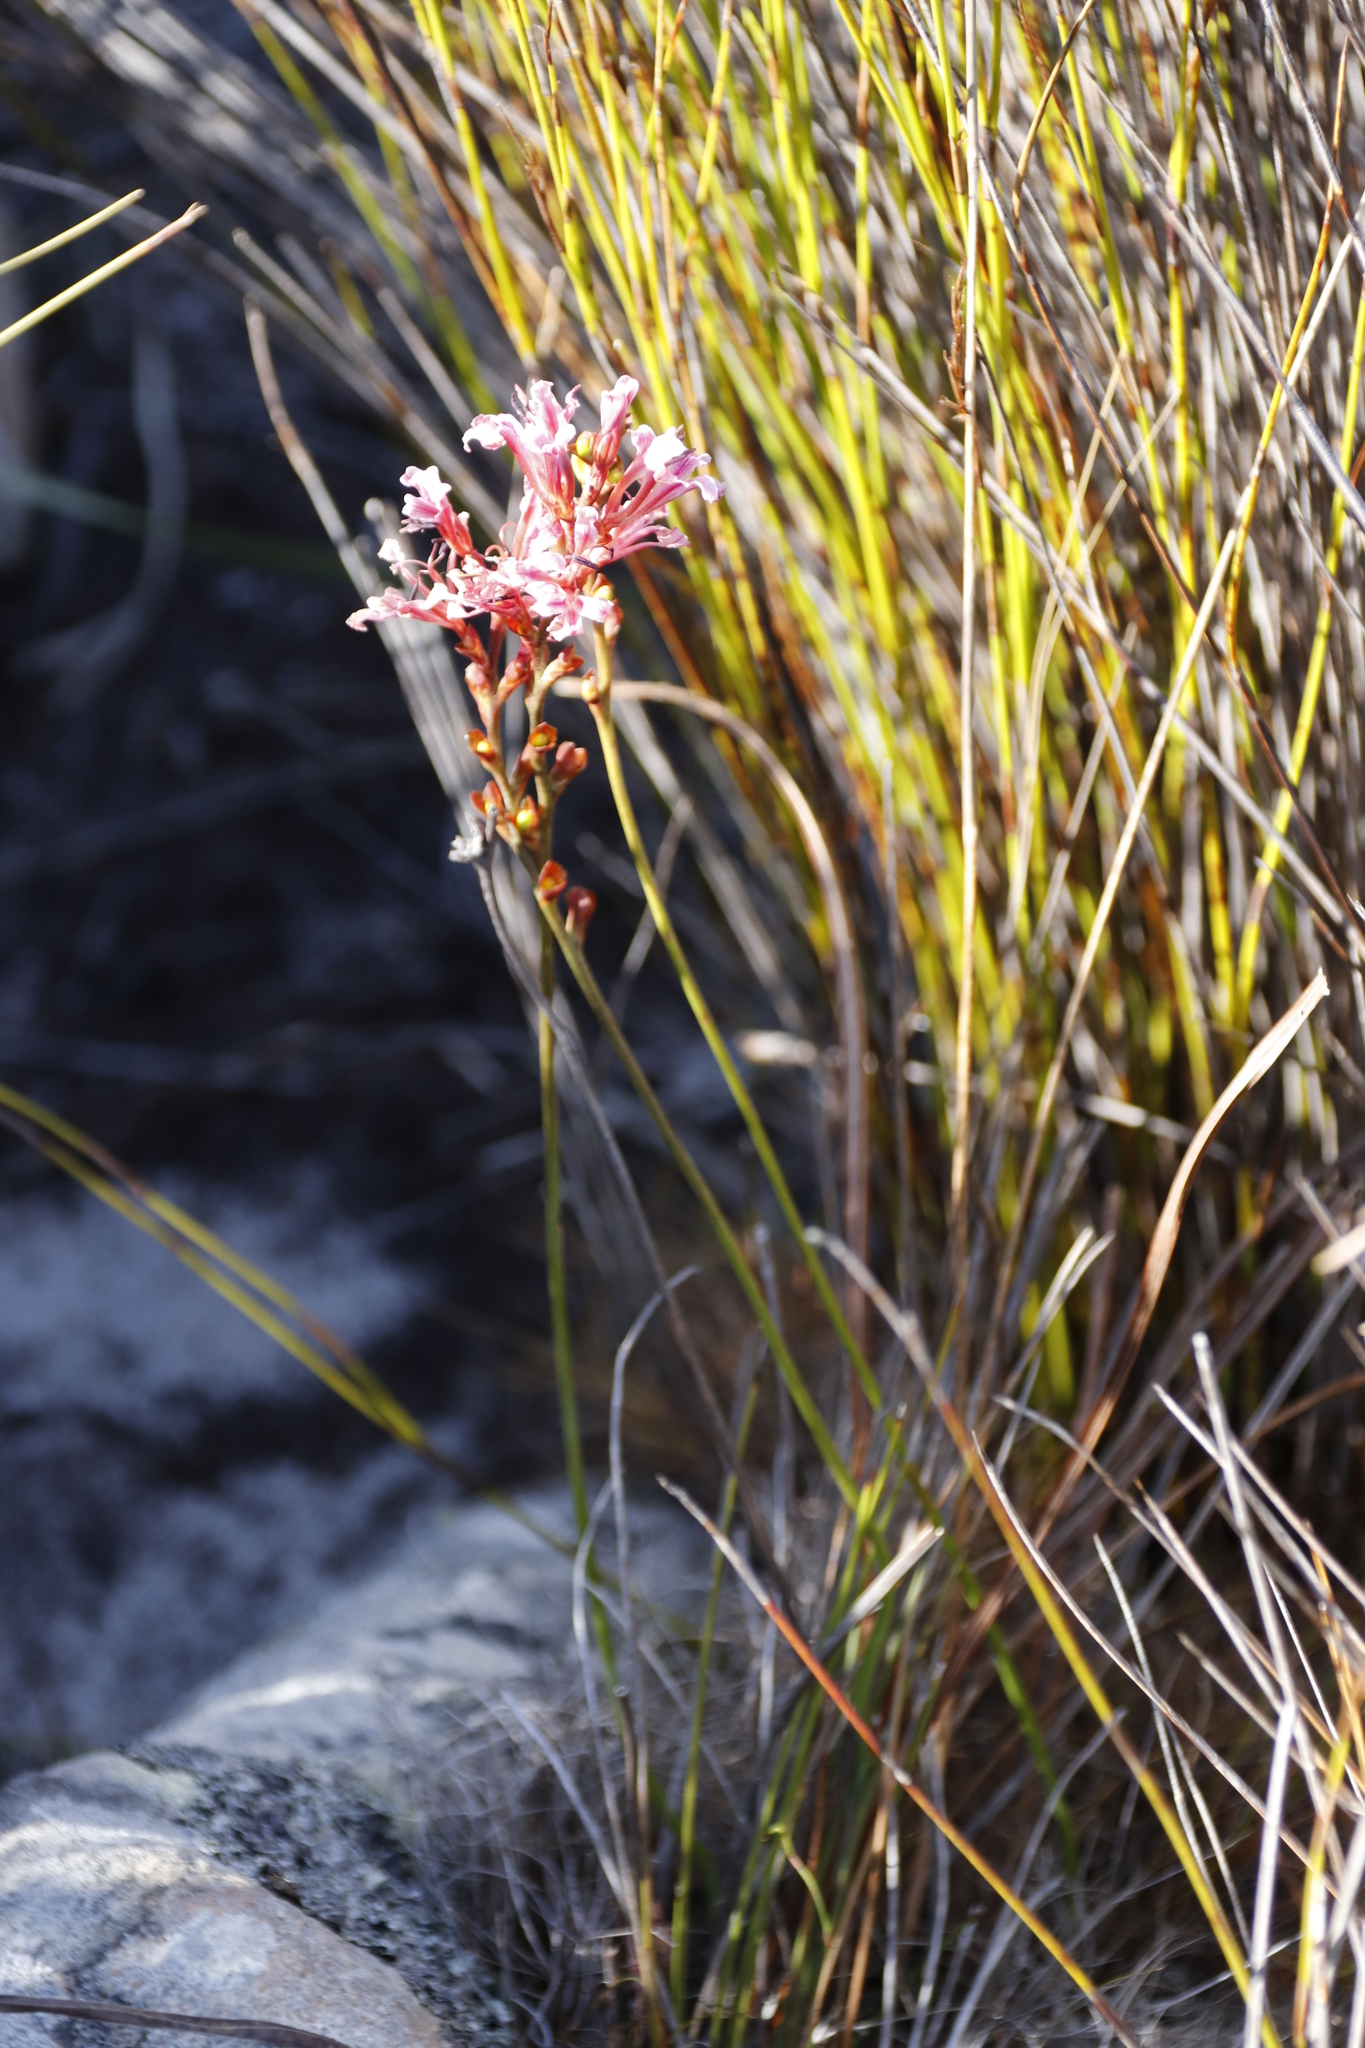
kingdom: Plantae
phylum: Tracheophyta
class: Liliopsida
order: Asparagales
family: Iridaceae
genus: Tritoniopsis
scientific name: Tritoniopsis dodii
